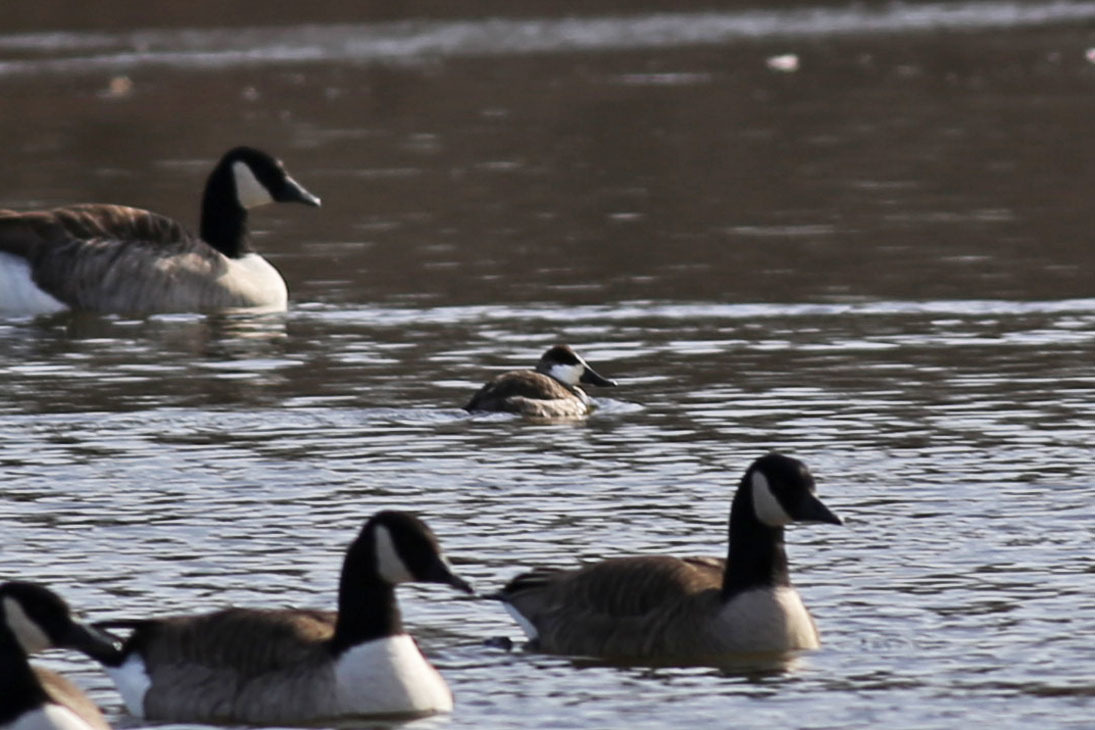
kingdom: Animalia
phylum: Chordata
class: Aves
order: Anseriformes
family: Anatidae
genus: Oxyura
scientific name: Oxyura jamaicensis
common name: Ruddy duck
